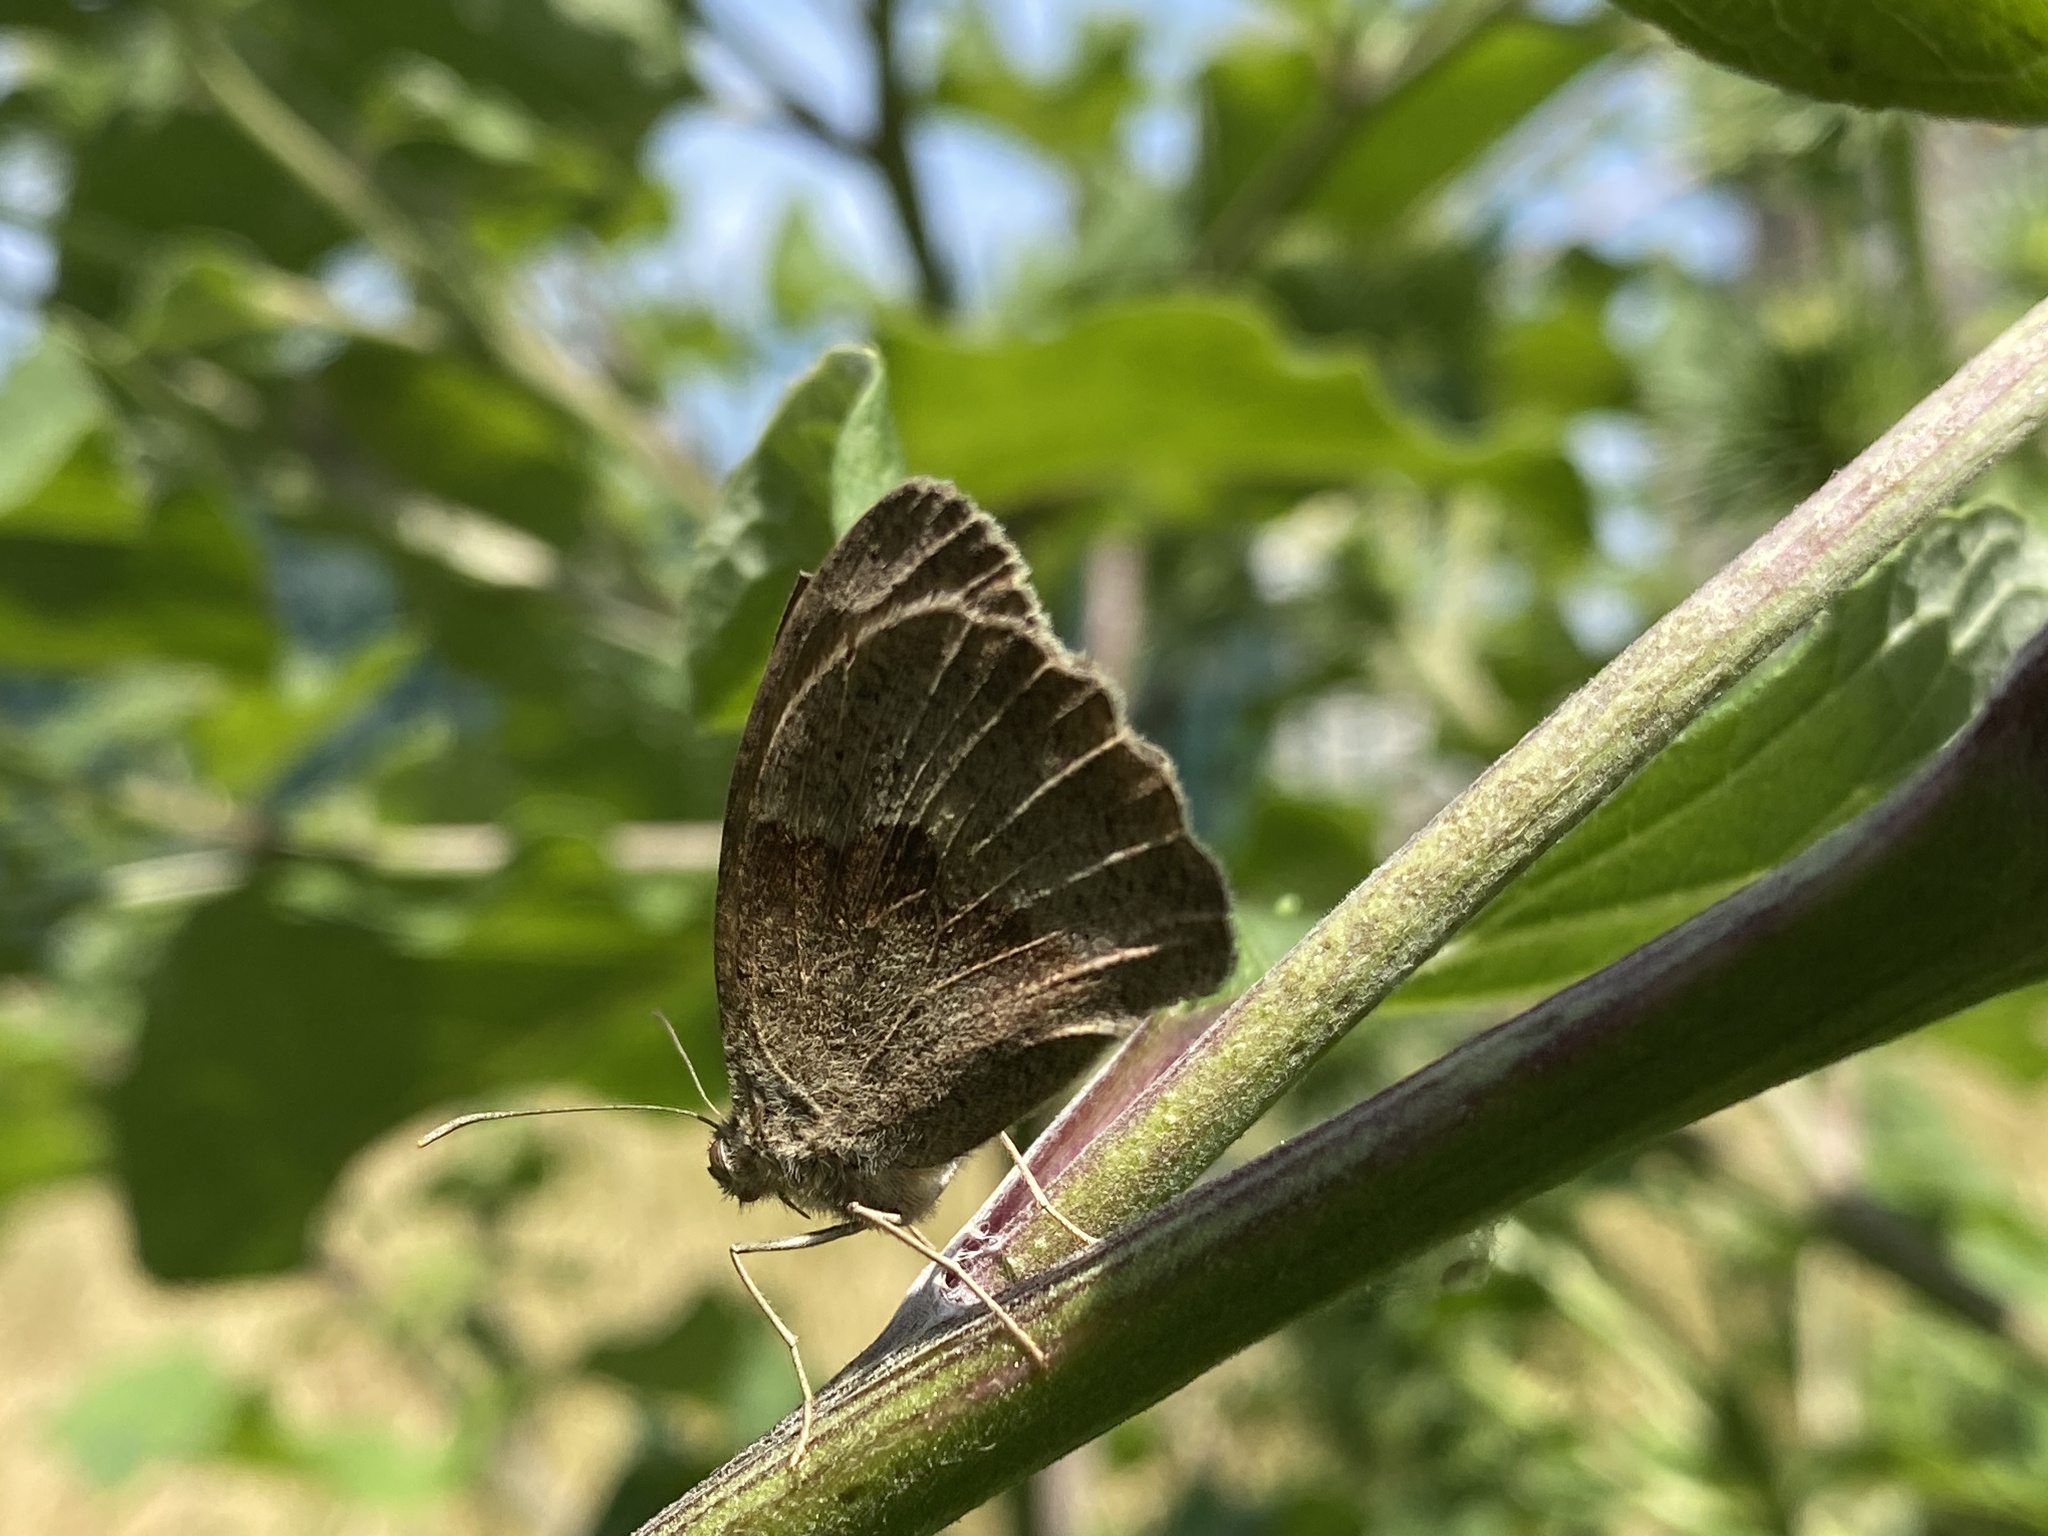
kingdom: Animalia
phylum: Arthropoda
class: Insecta
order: Lepidoptera
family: Nymphalidae
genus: Maniola
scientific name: Maniola jurtina
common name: Meadow brown
